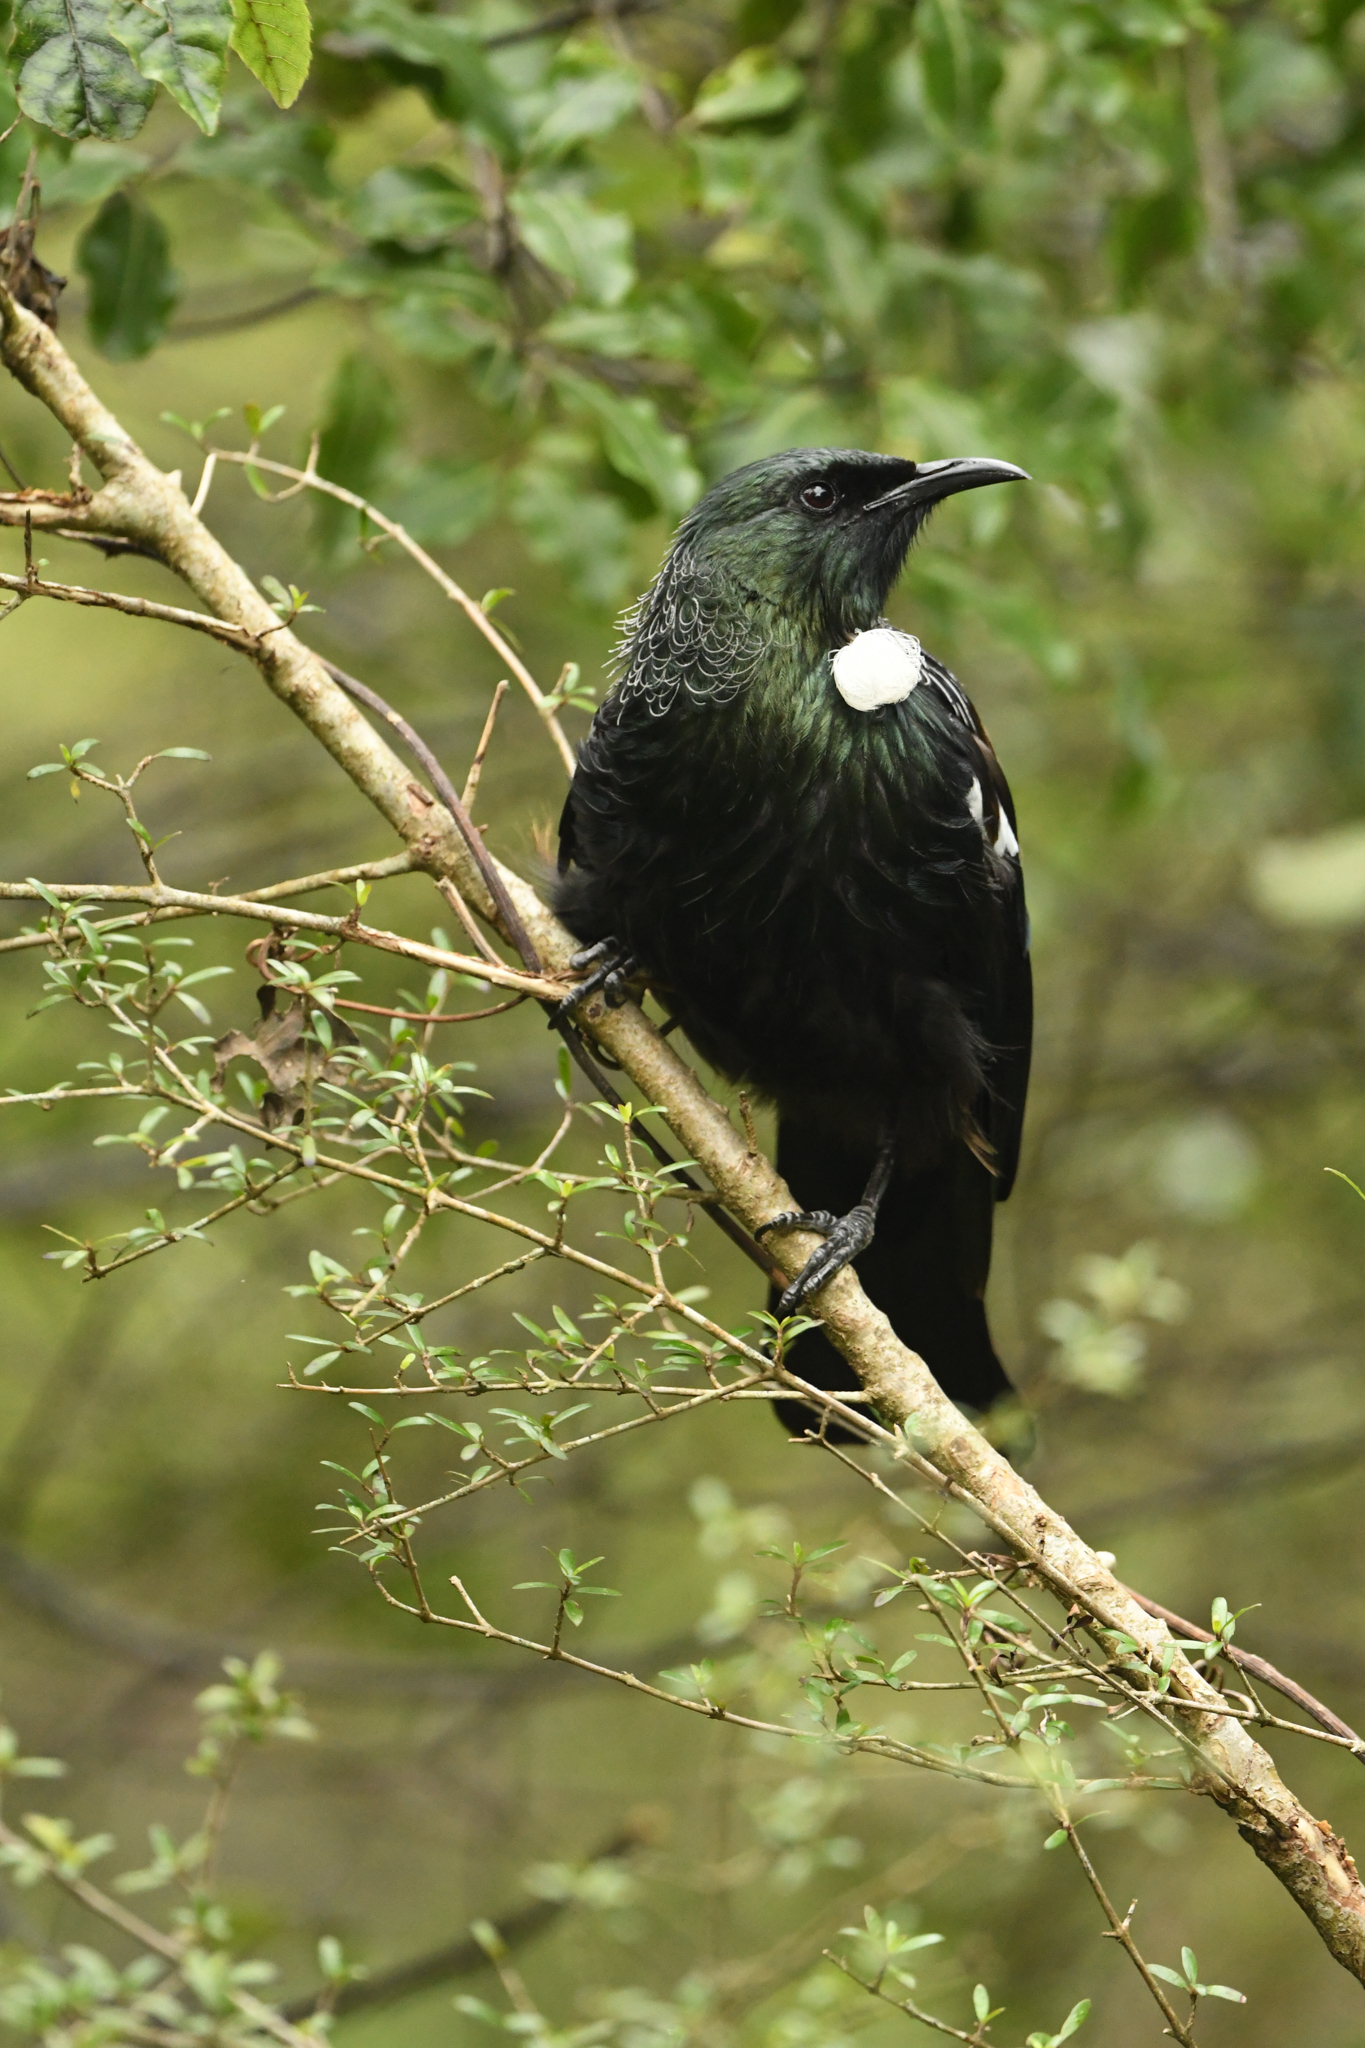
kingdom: Animalia
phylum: Chordata
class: Aves
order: Passeriformes
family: Meliphagidae
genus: Prosthemadera
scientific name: Prosthemadera novaeseelandiae
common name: Tui
